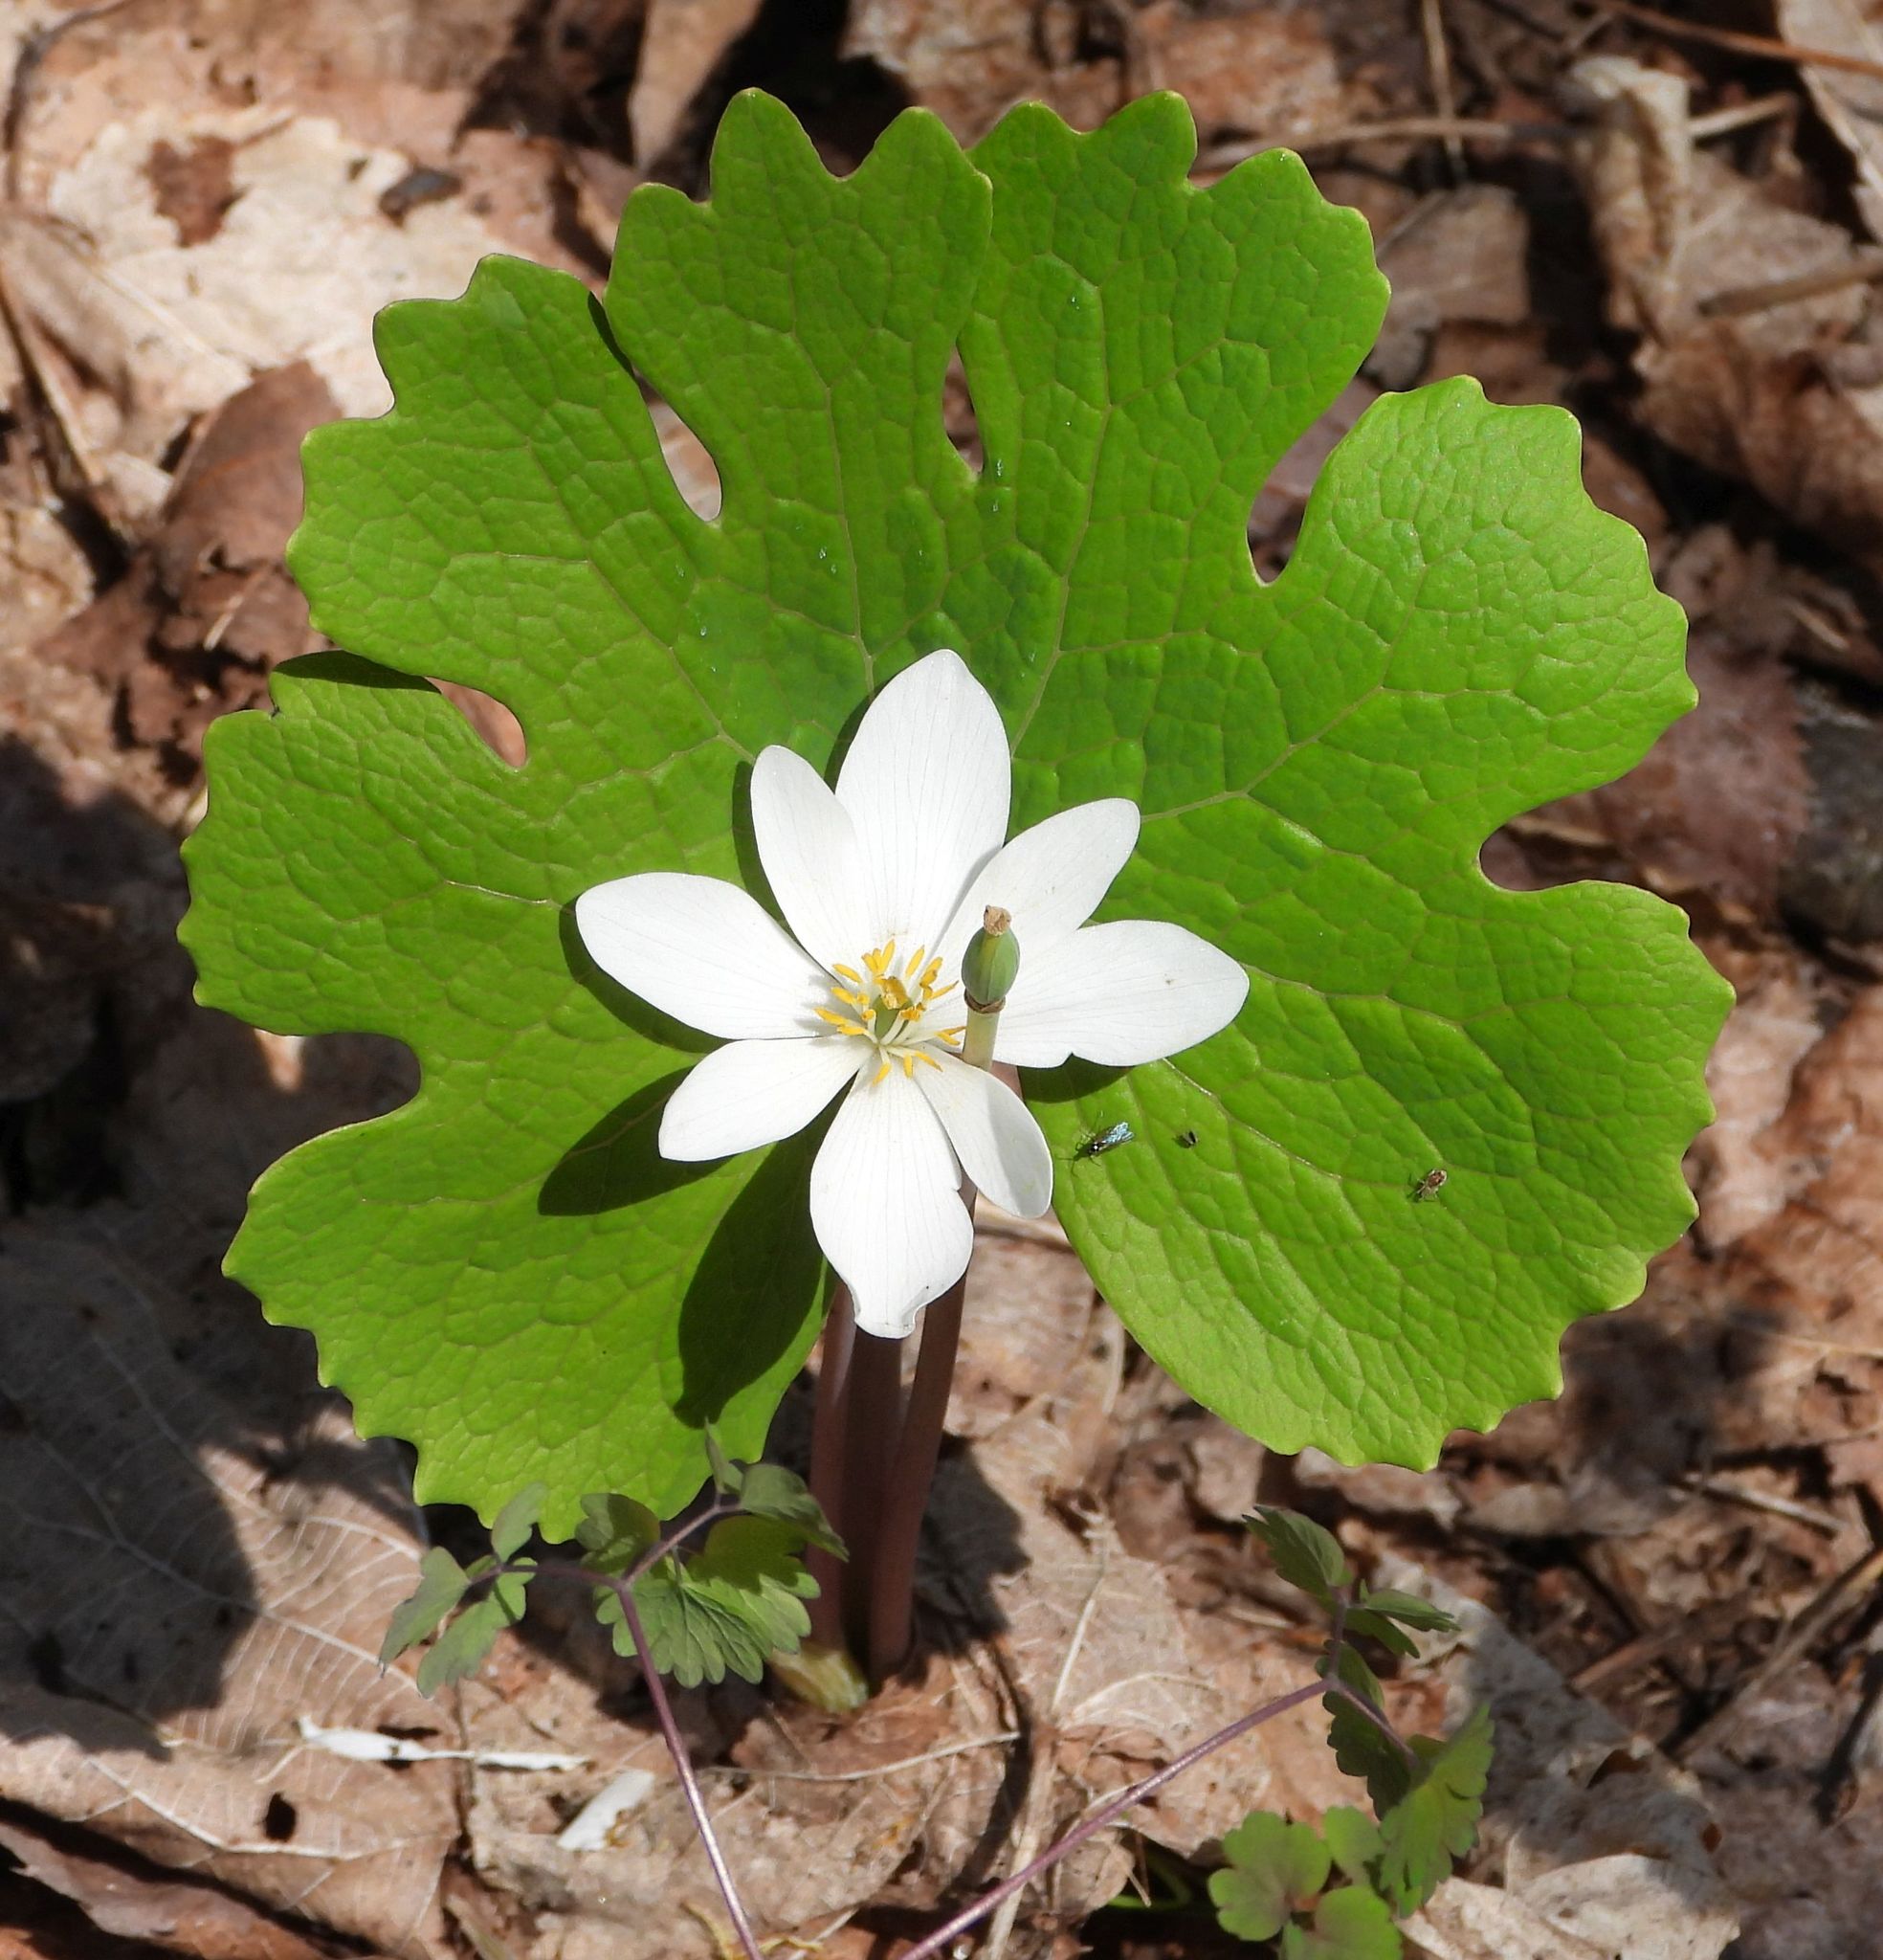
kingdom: Plantae
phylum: Tracheophyta
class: Magnoliopsida
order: Ranunculales
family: Papaveraceae
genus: Sanguinaria
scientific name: Sanguinaria canadensis
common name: Bloodroot
